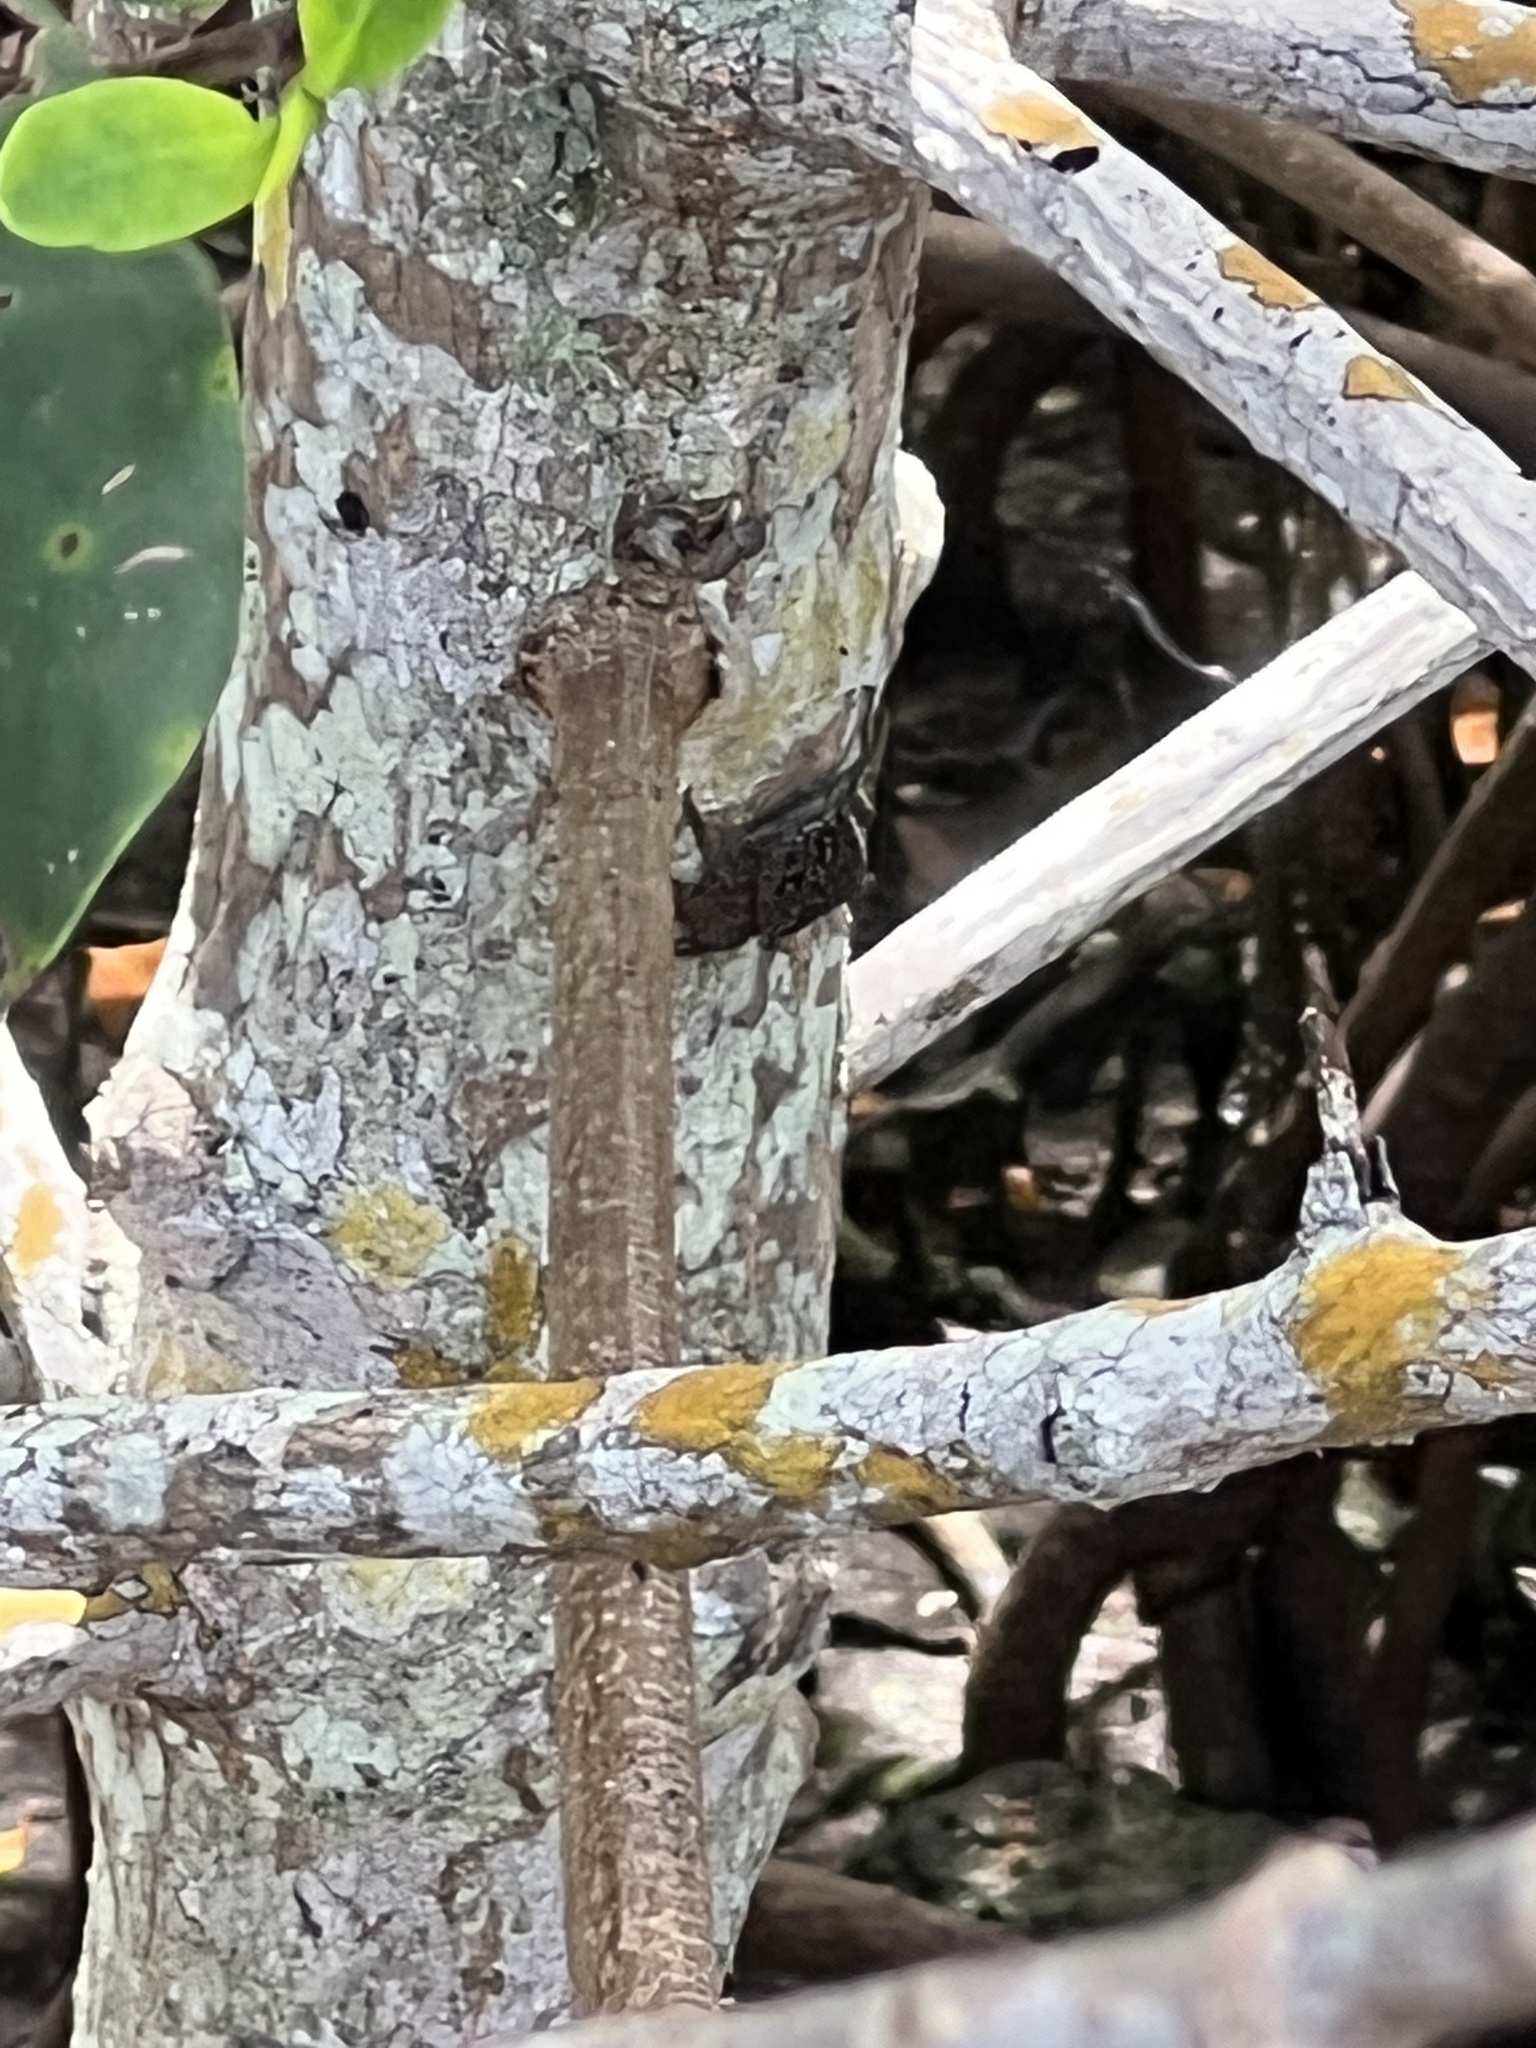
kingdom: Animalia
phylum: Arthropoda
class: Malacostraca
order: Decapoda
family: Sesarmidae
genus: Aratus
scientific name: Aratus pisonii
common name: Mangrove crab
